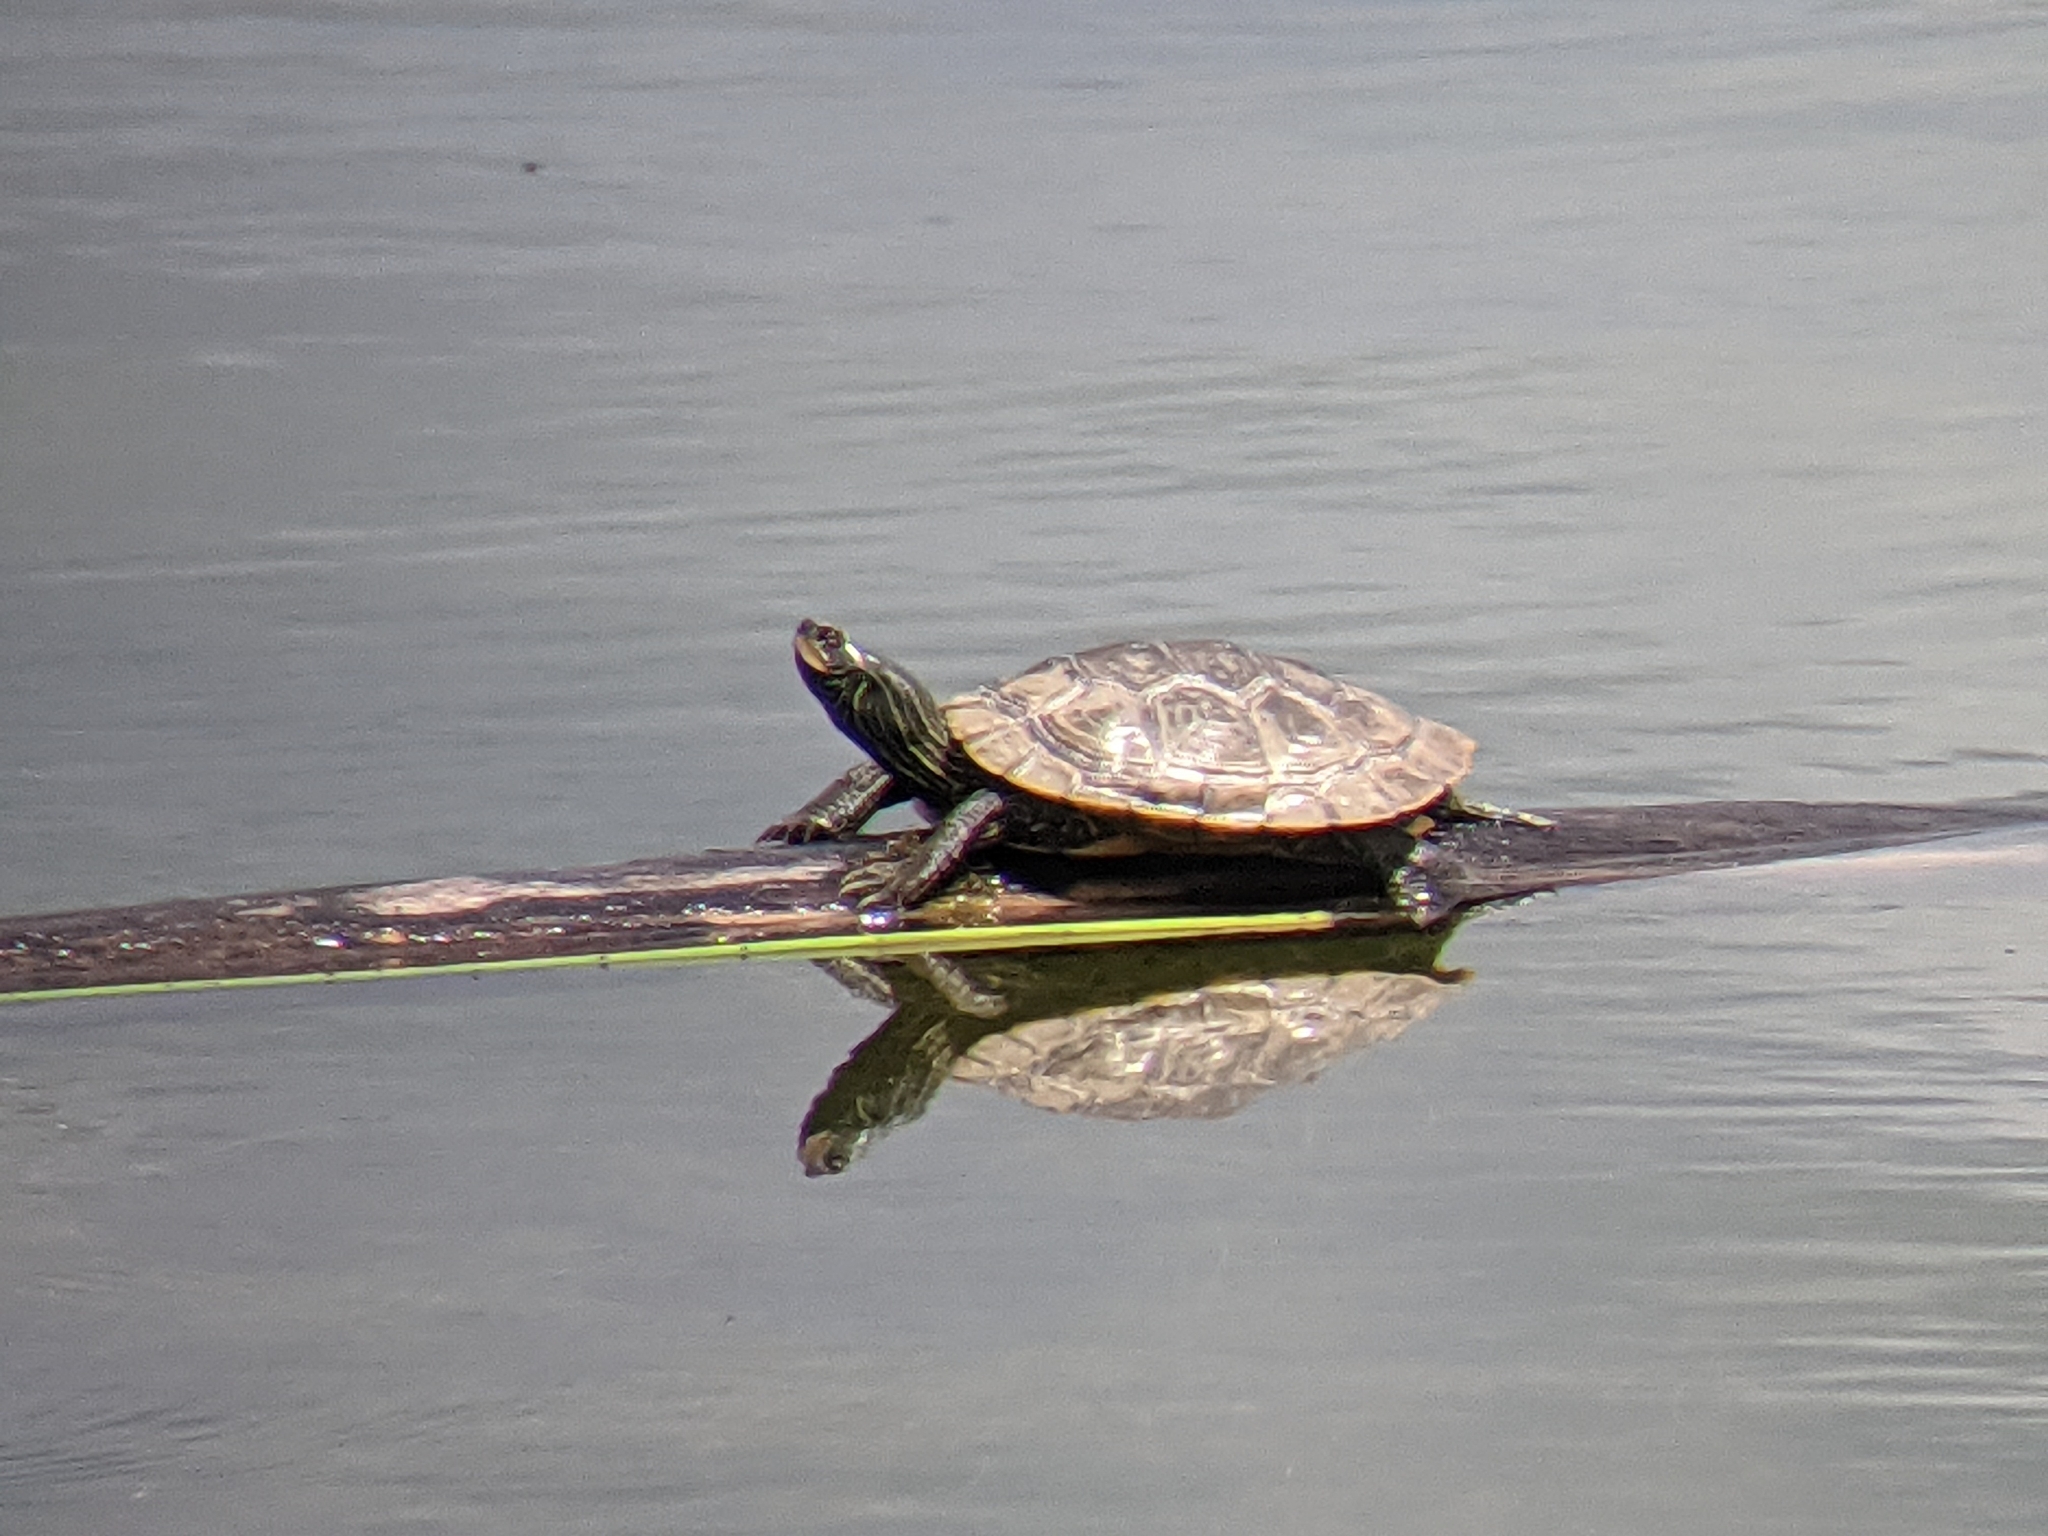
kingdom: Animalia
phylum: Chordata
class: Testudines
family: Emydidae
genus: Graptemys
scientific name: Graptemys geographica
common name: Common map turtle
